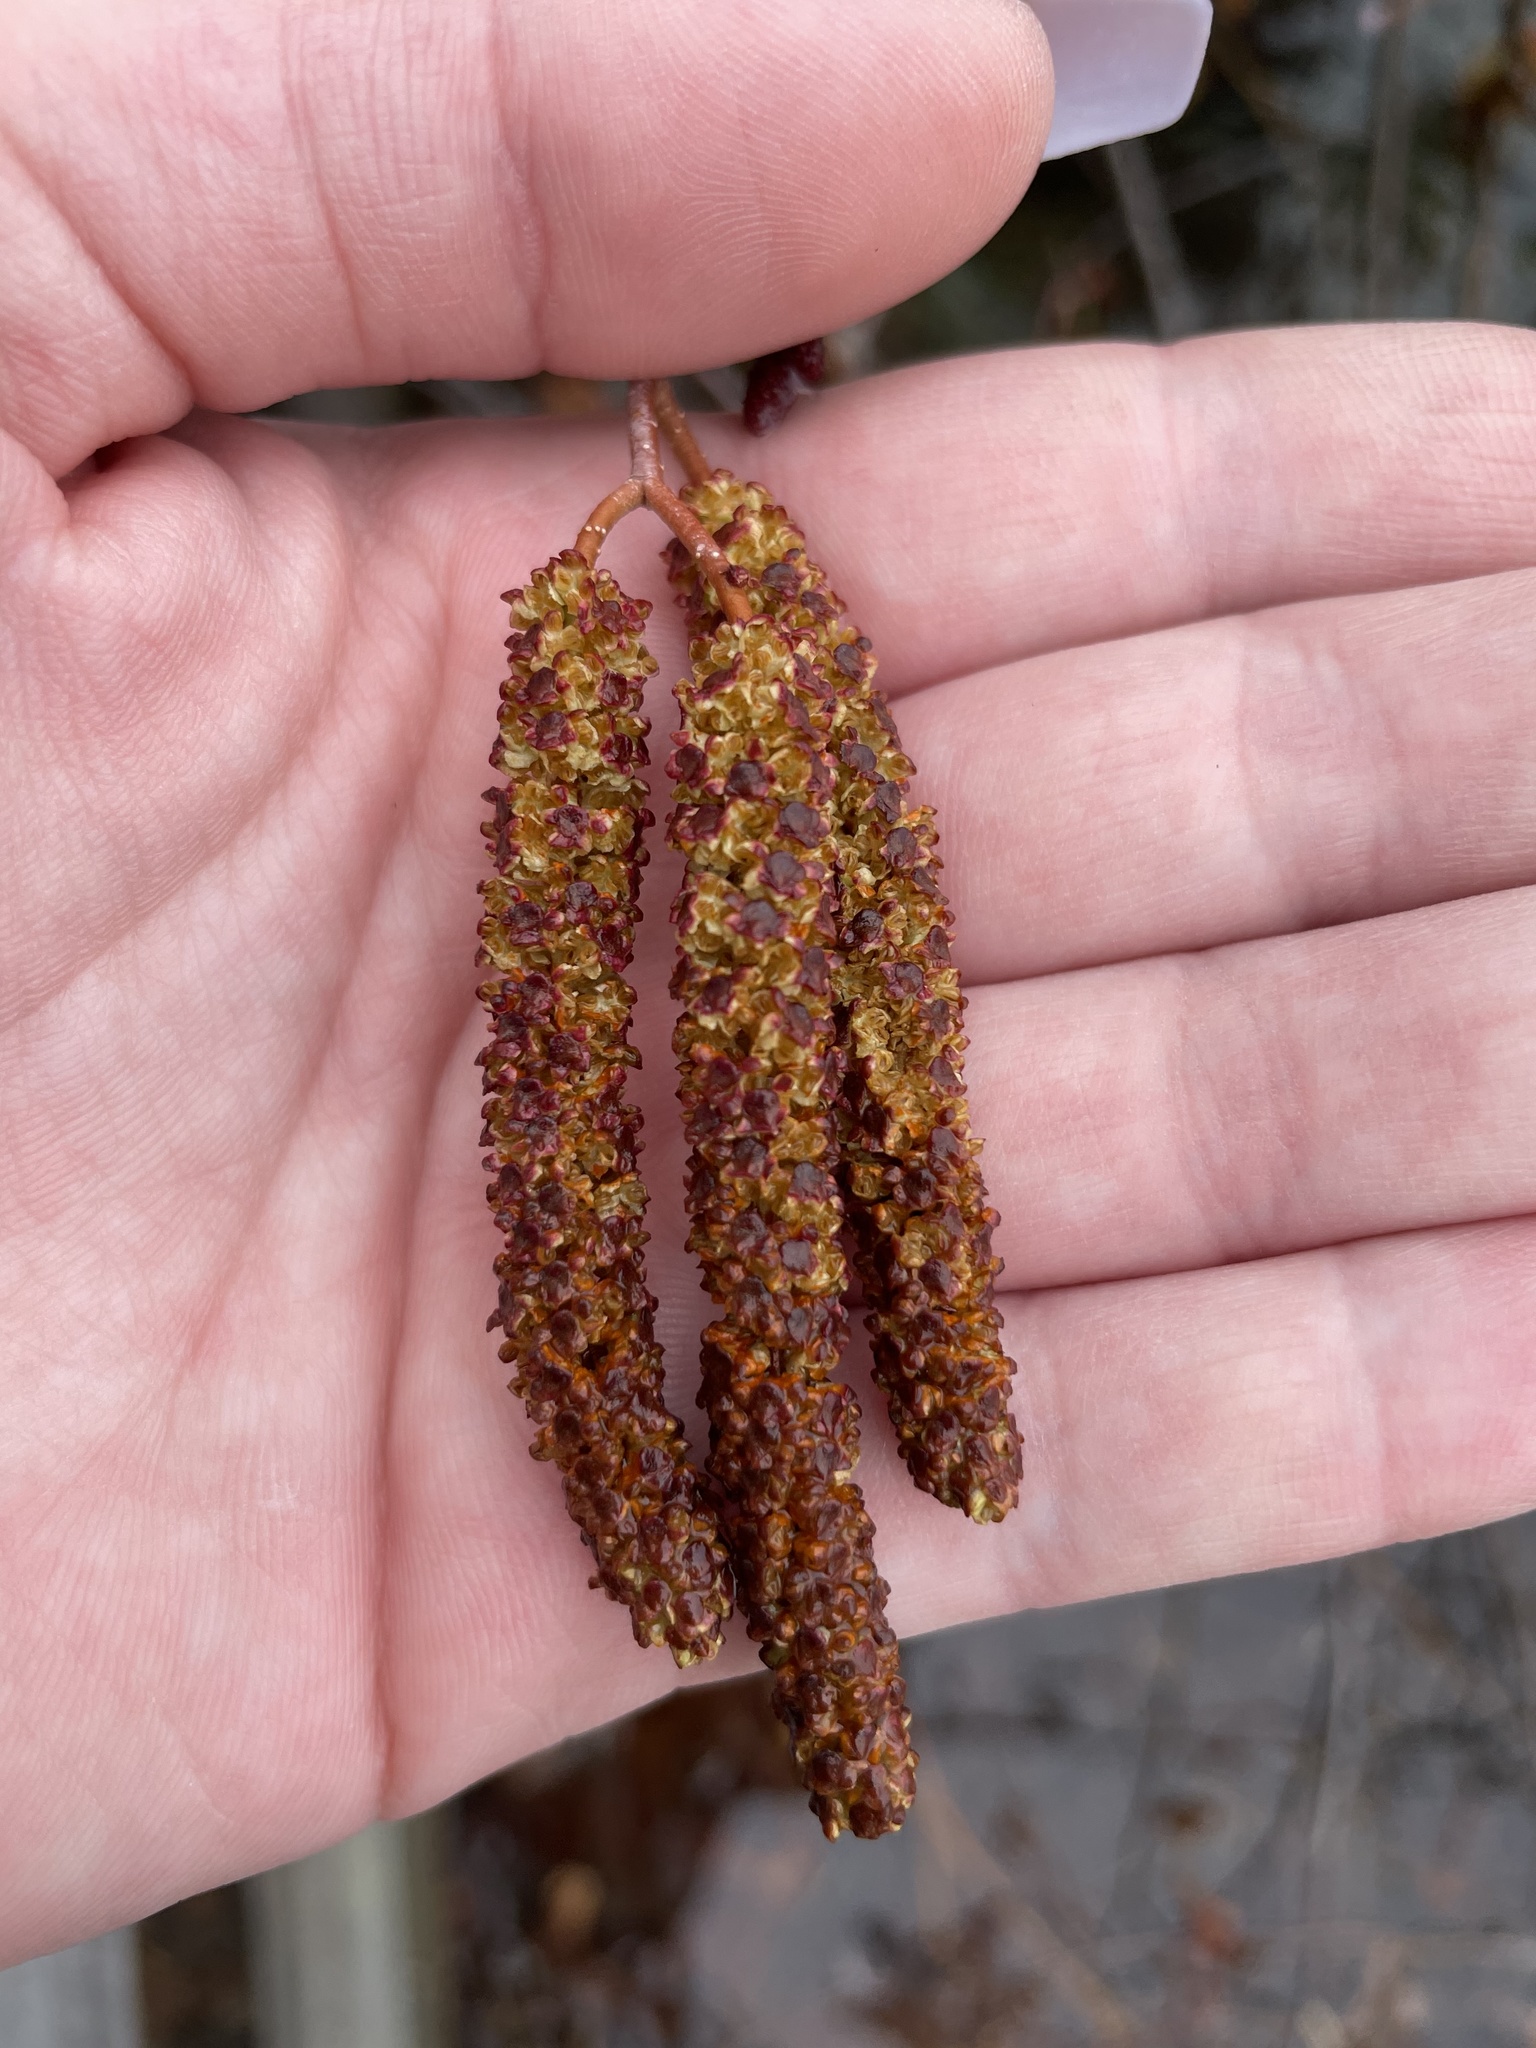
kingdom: Plantae
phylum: Tracheophyta
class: Magnoliopsida
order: Fagales
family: Betulaceae
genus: Alnus
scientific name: Alnus incana
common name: Grey alder
